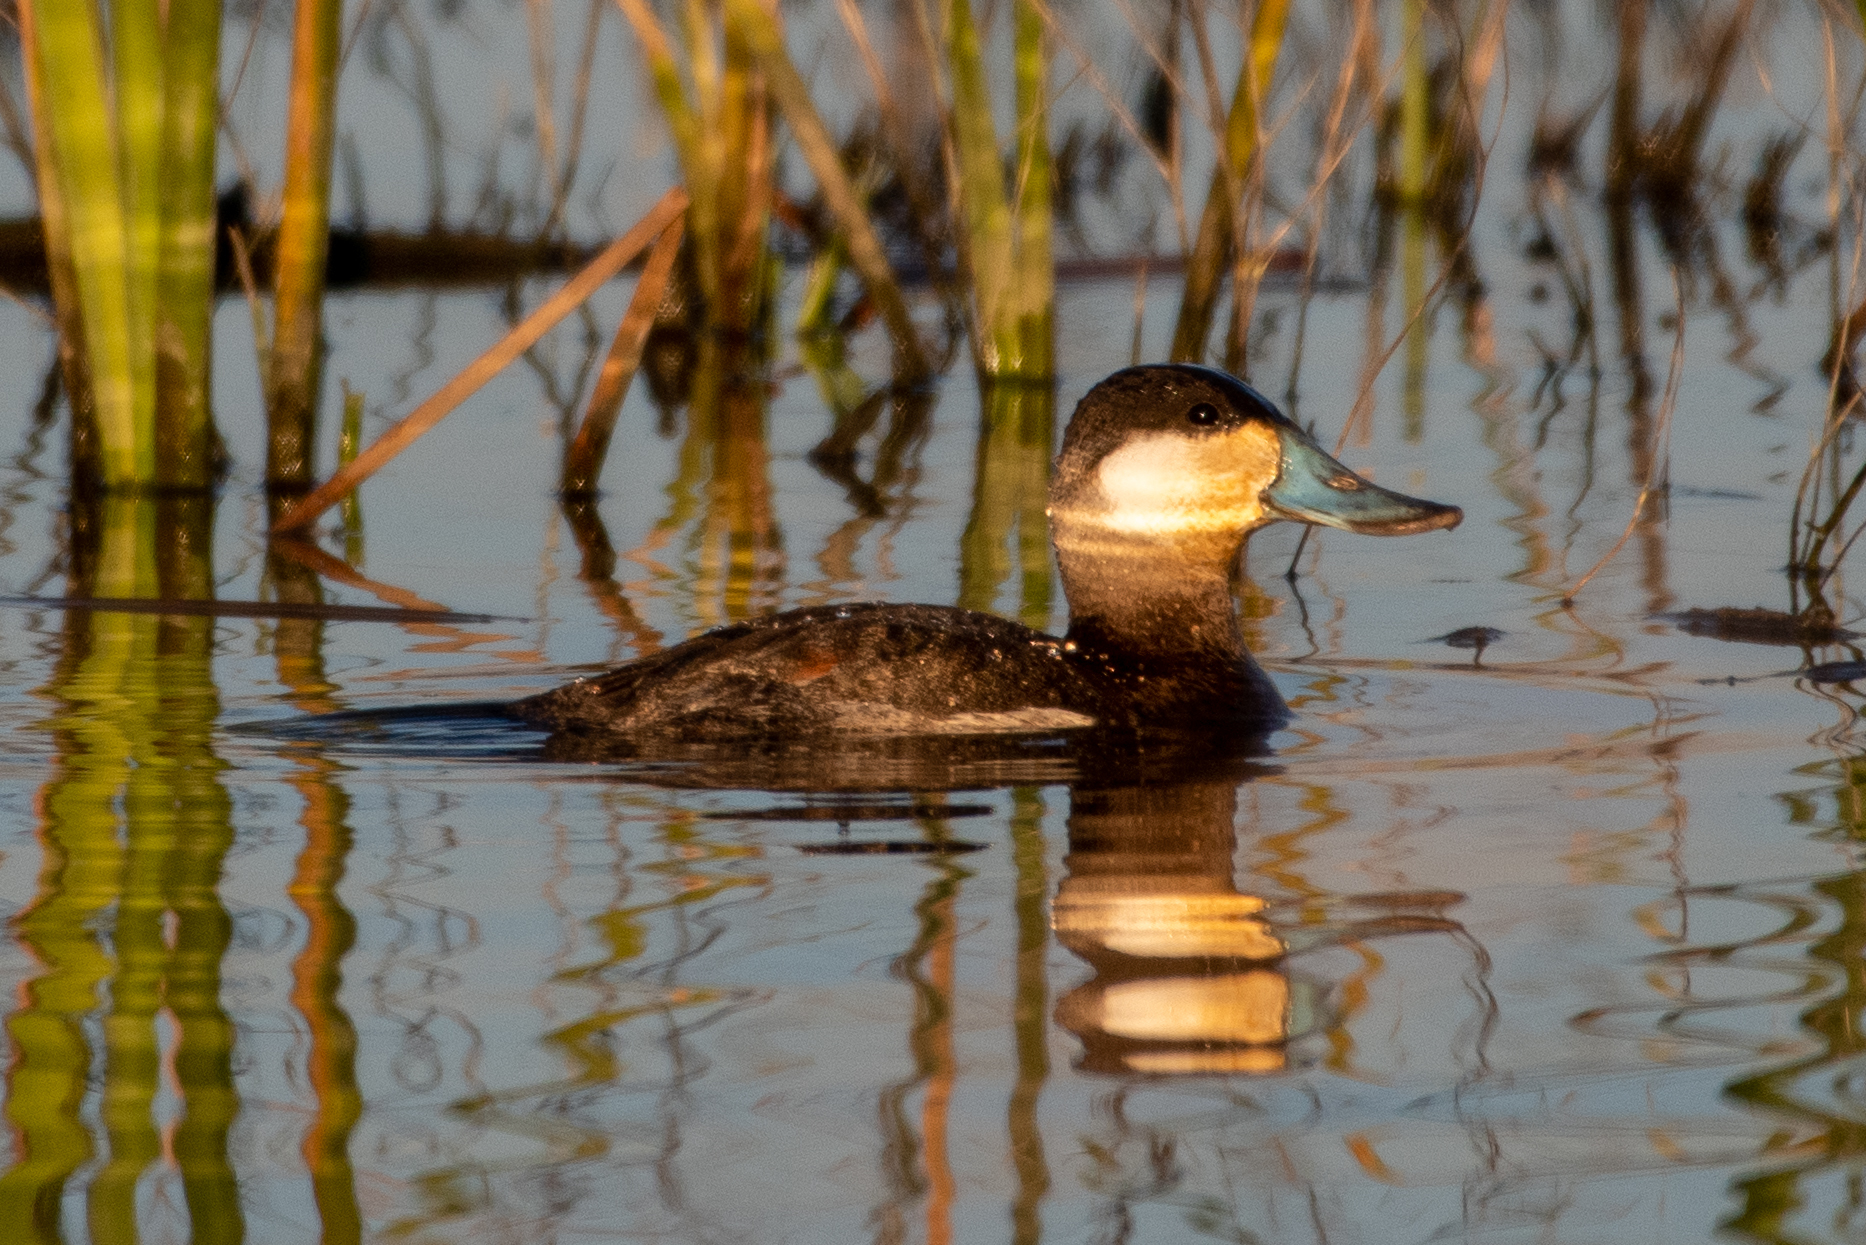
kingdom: Animalia
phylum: Chordata
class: Aves
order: Anseriformes
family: Anatidae
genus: Oxyura
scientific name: Oxyura jamaicensis
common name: Ruddy duck
